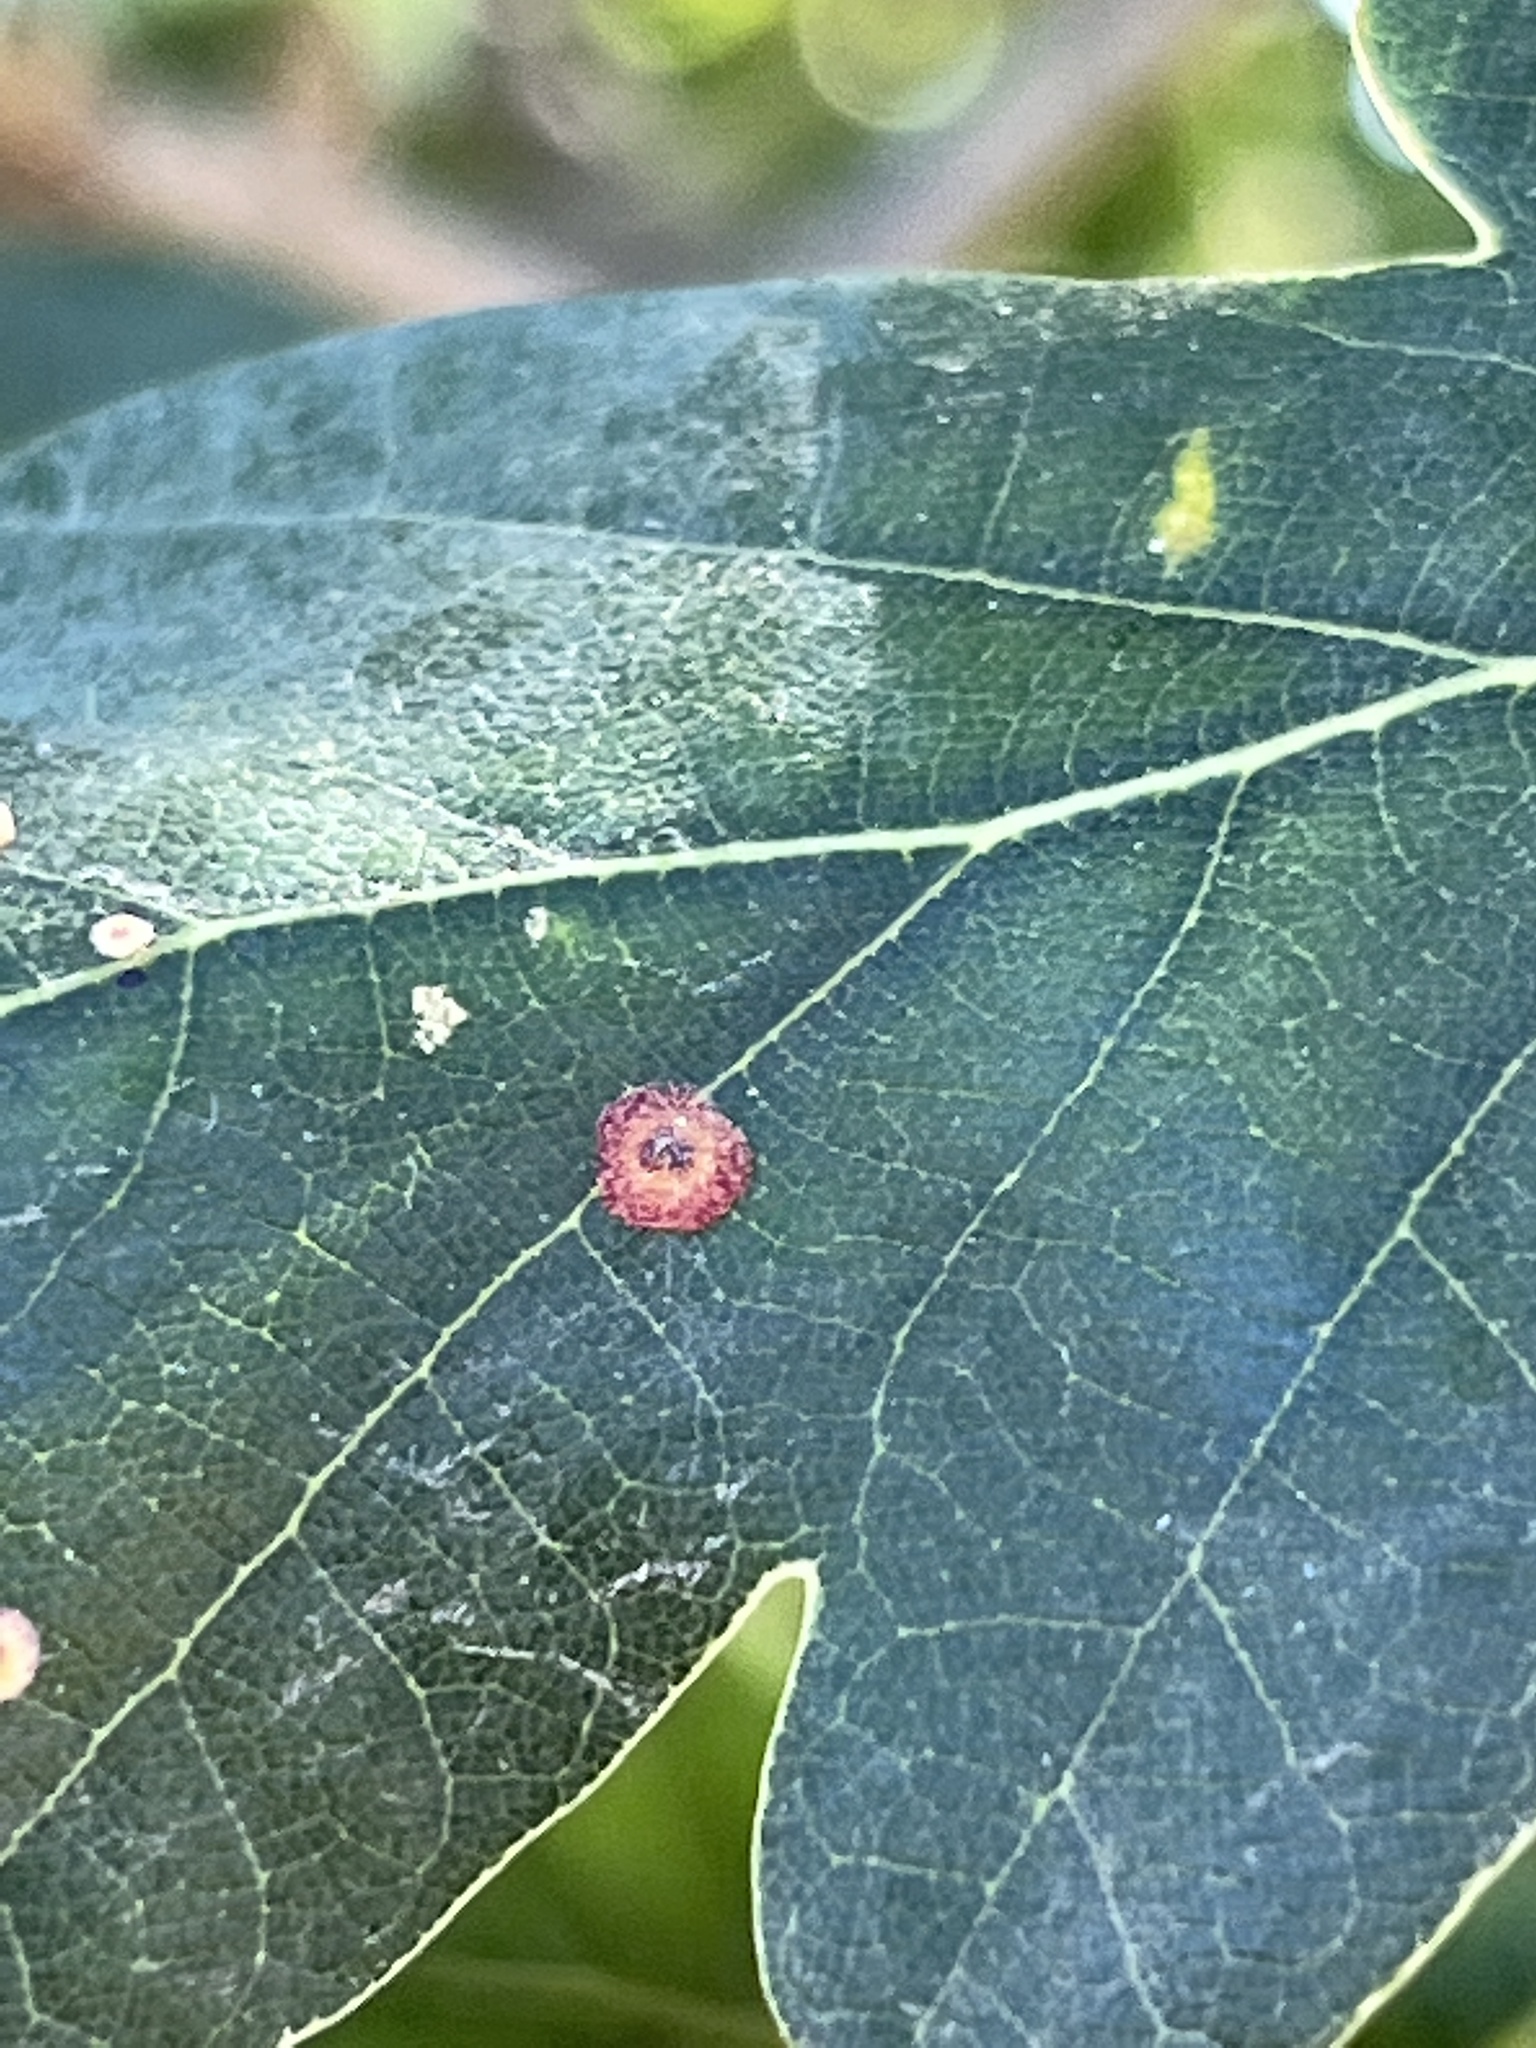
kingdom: Animalia
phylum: Arthropoda
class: Insecta
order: Hymenoptera
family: Cynipidae
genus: Neuroterus
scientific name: Neuroterus quercusbaccarum
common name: Common spangle gall
